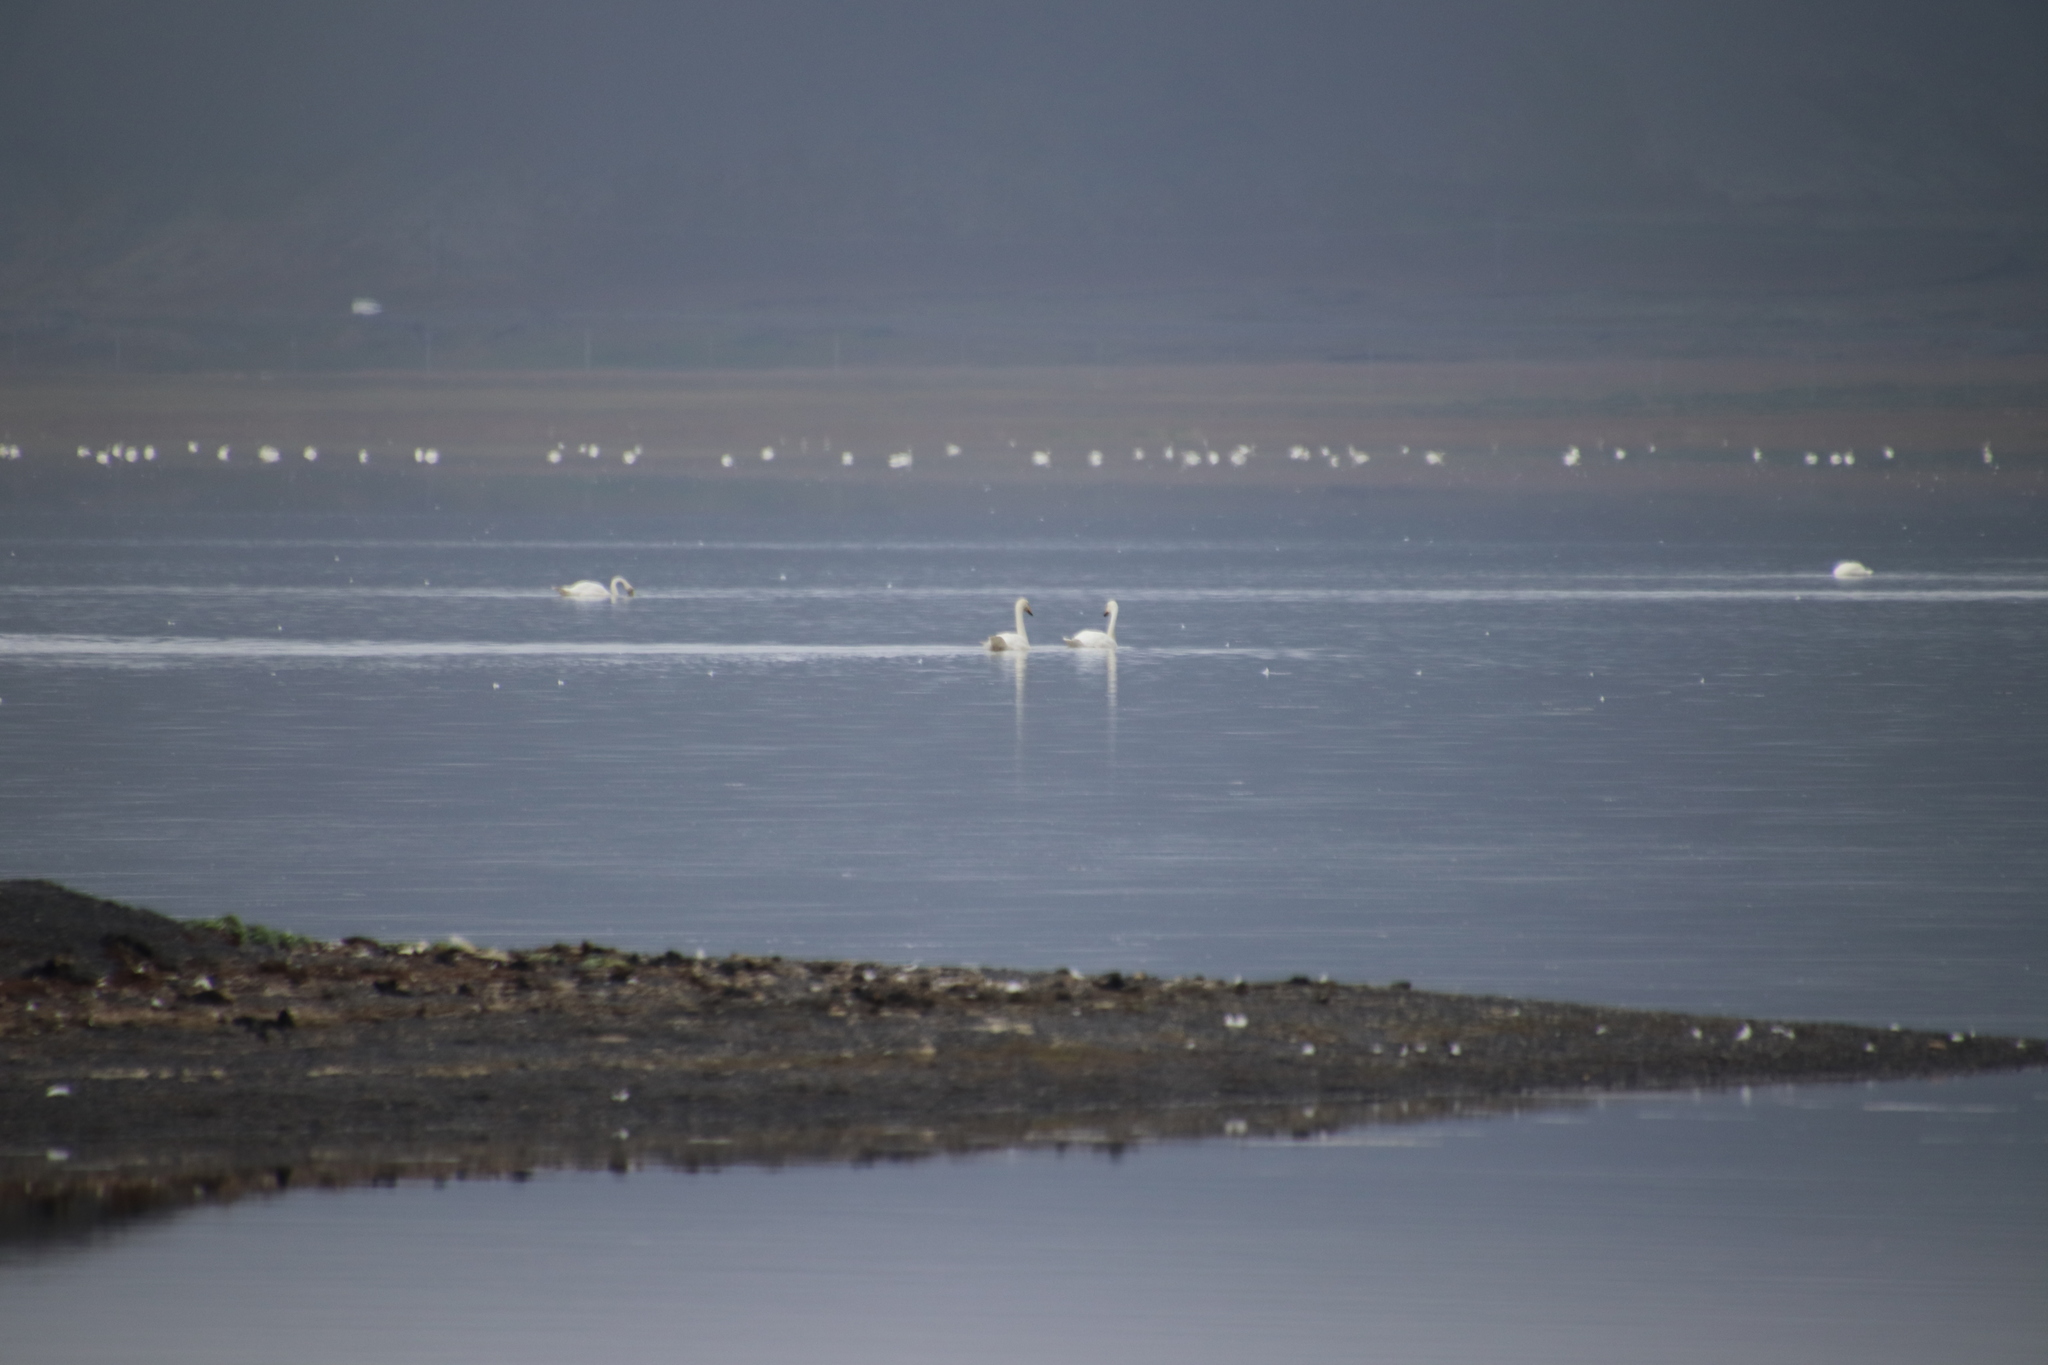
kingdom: Animalia
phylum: Chordata
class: Aves
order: Anseriformes
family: Anatidae
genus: Cygnus
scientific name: Cygnus cygnus
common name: Whooper swan
